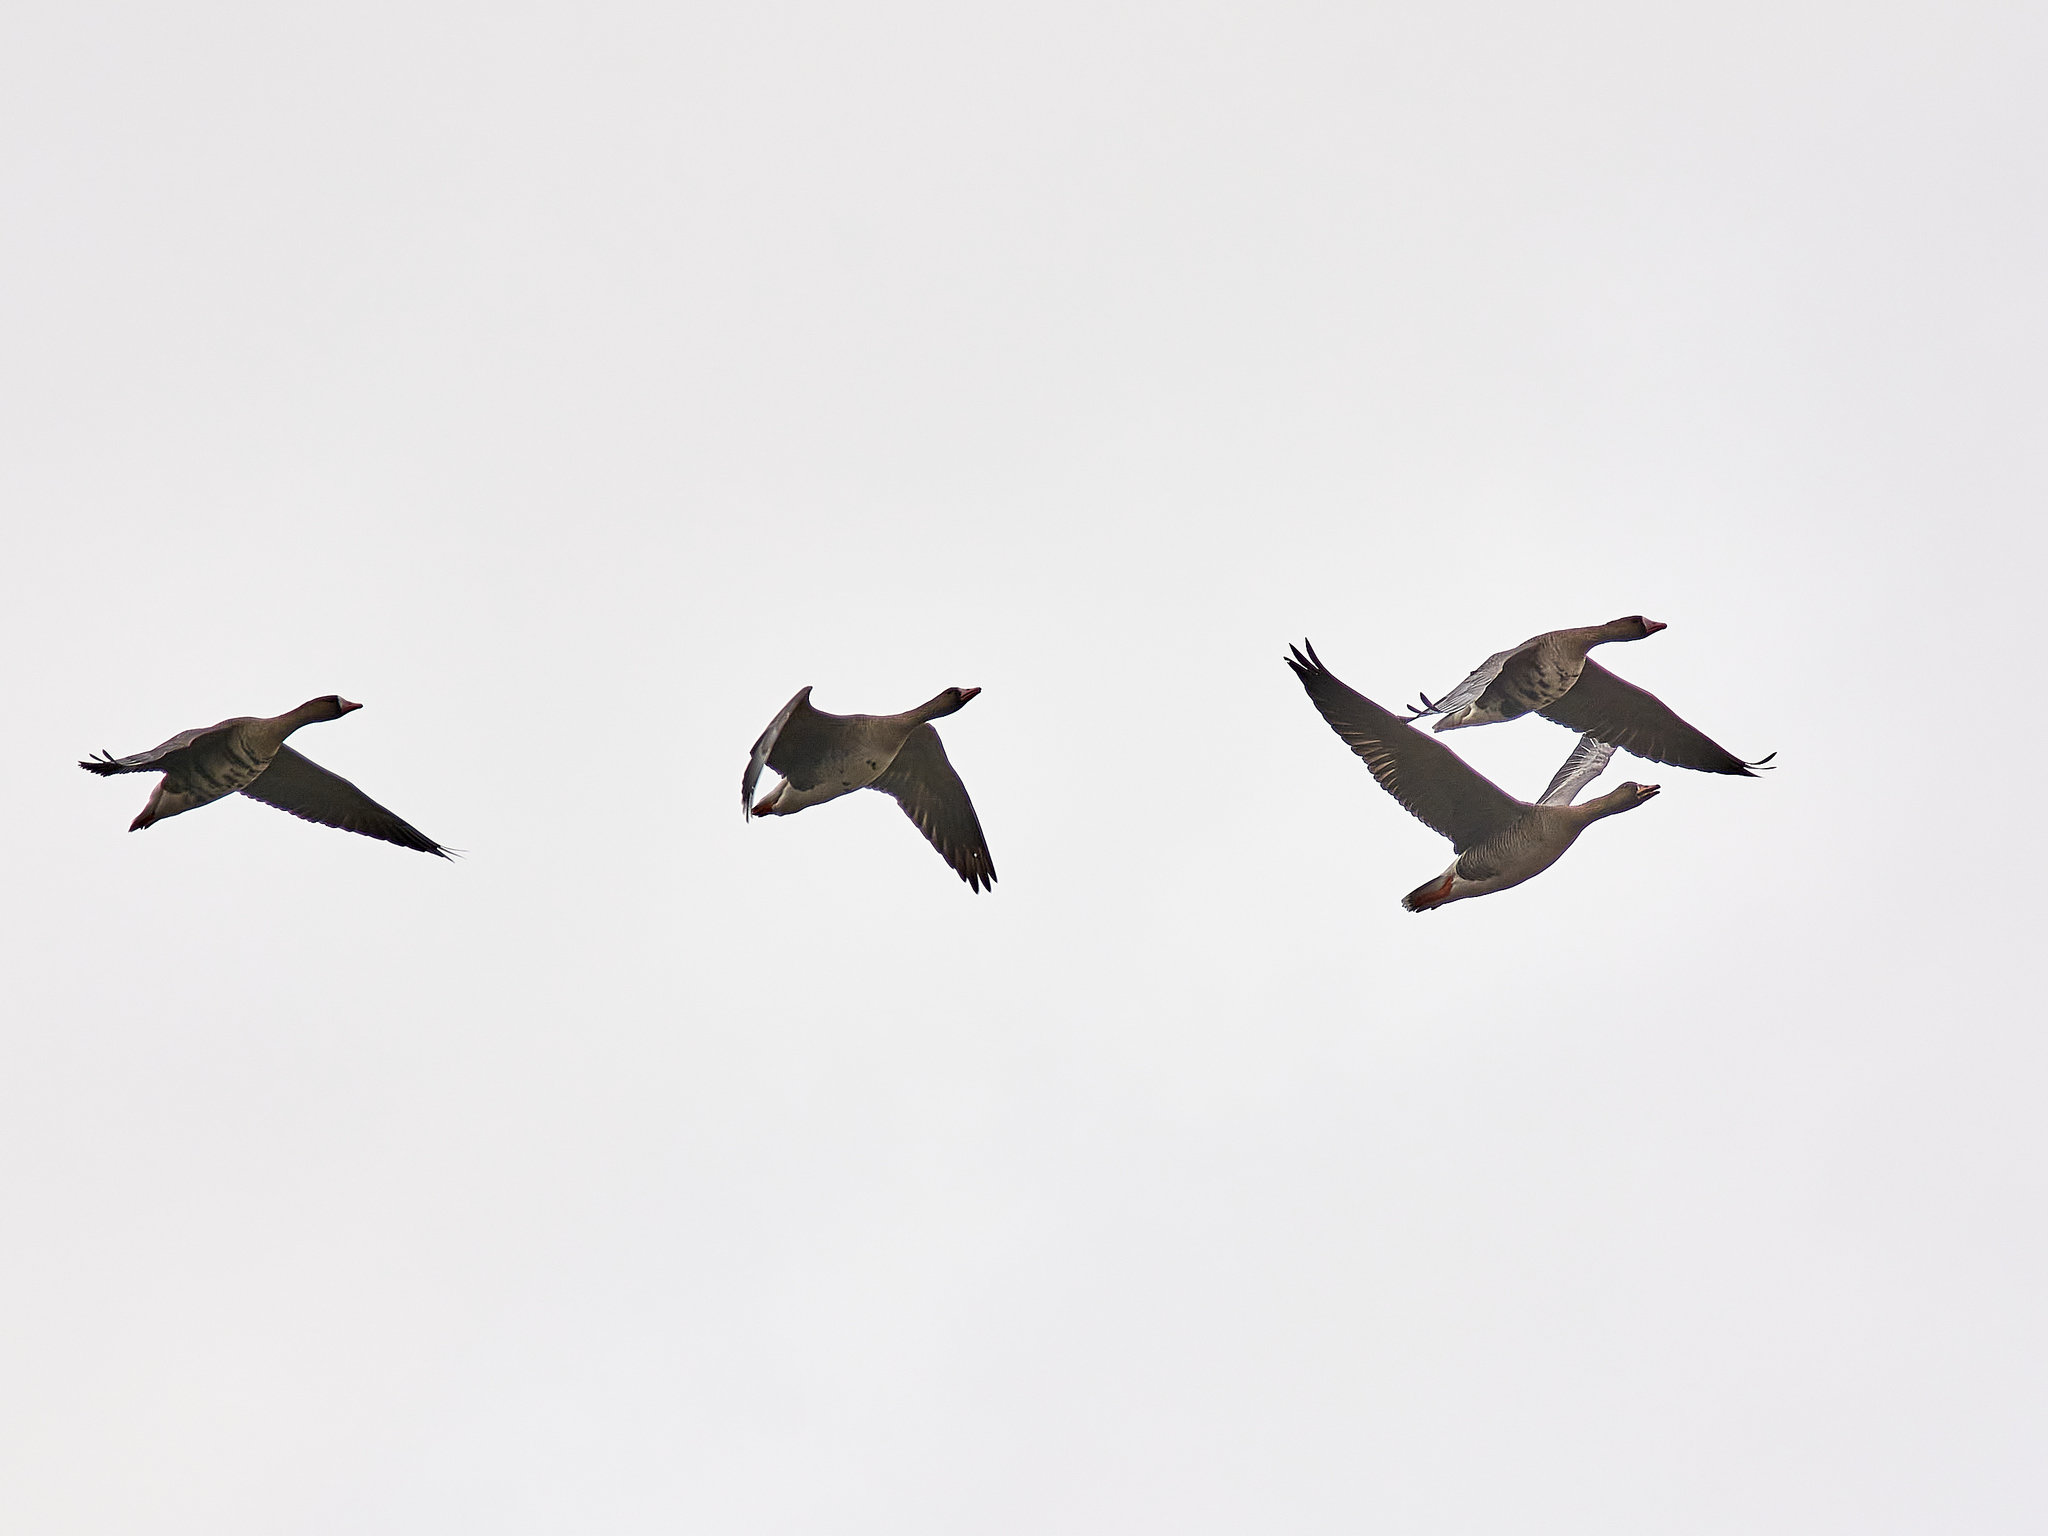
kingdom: Animalia
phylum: Chordata
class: Aves
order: Anseriformes
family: Anatidae
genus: Anser
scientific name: Anser albifrons
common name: Greater white-fronted goose
